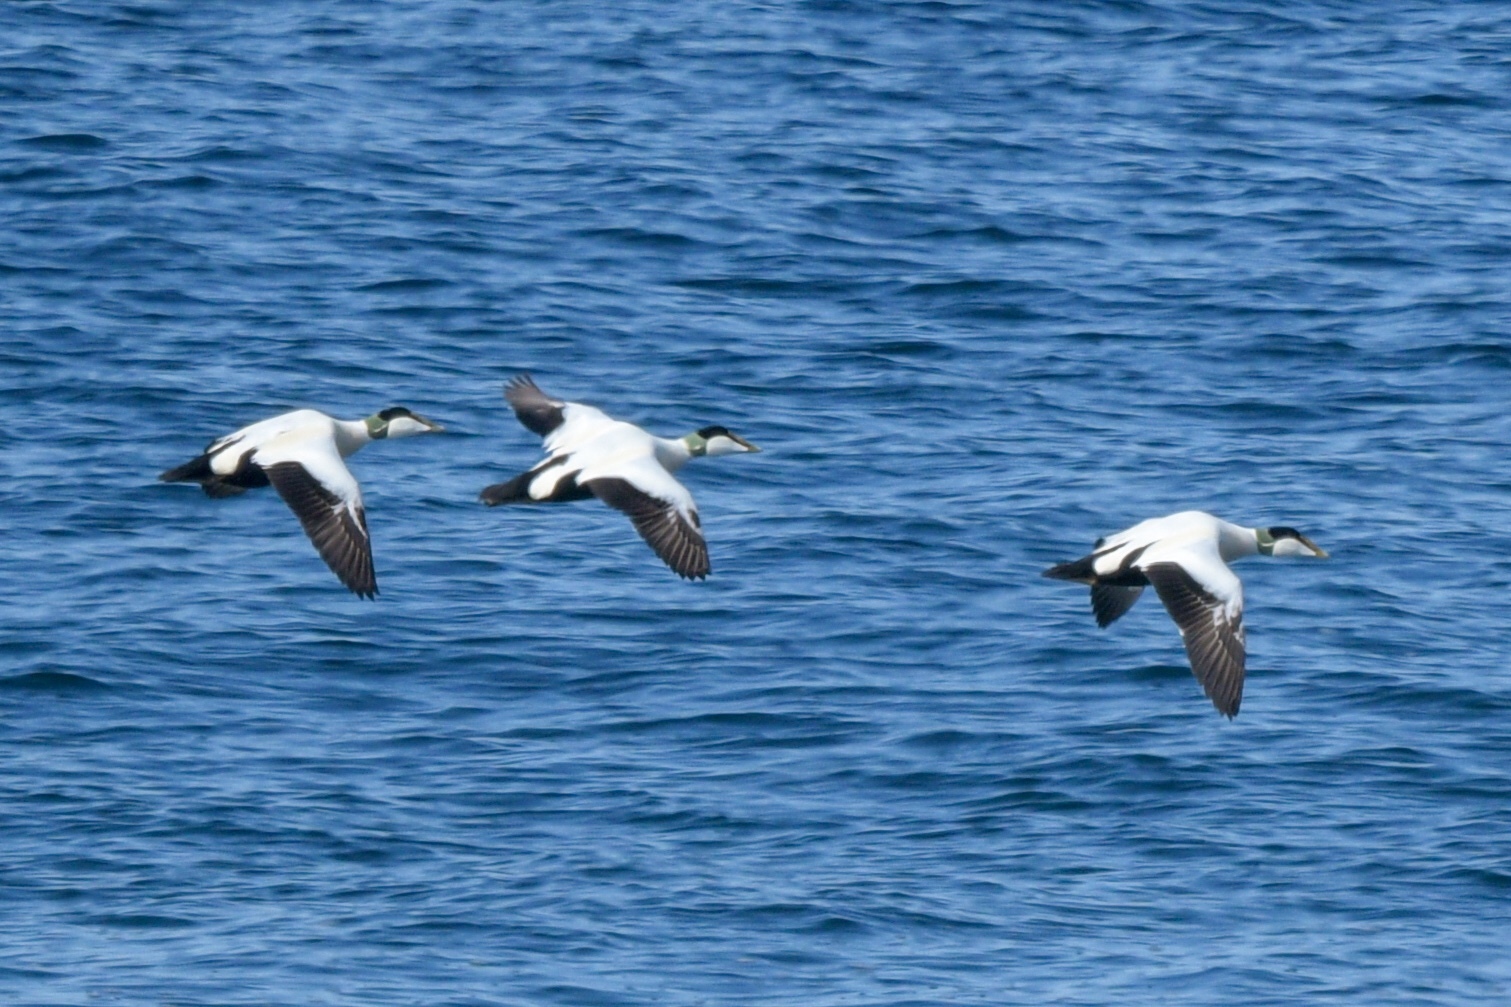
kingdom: Animalia
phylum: Chordata
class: Aves
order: Anseriformes
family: Anatidae
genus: Somateria
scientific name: Somateria mollissima
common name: Common eider
